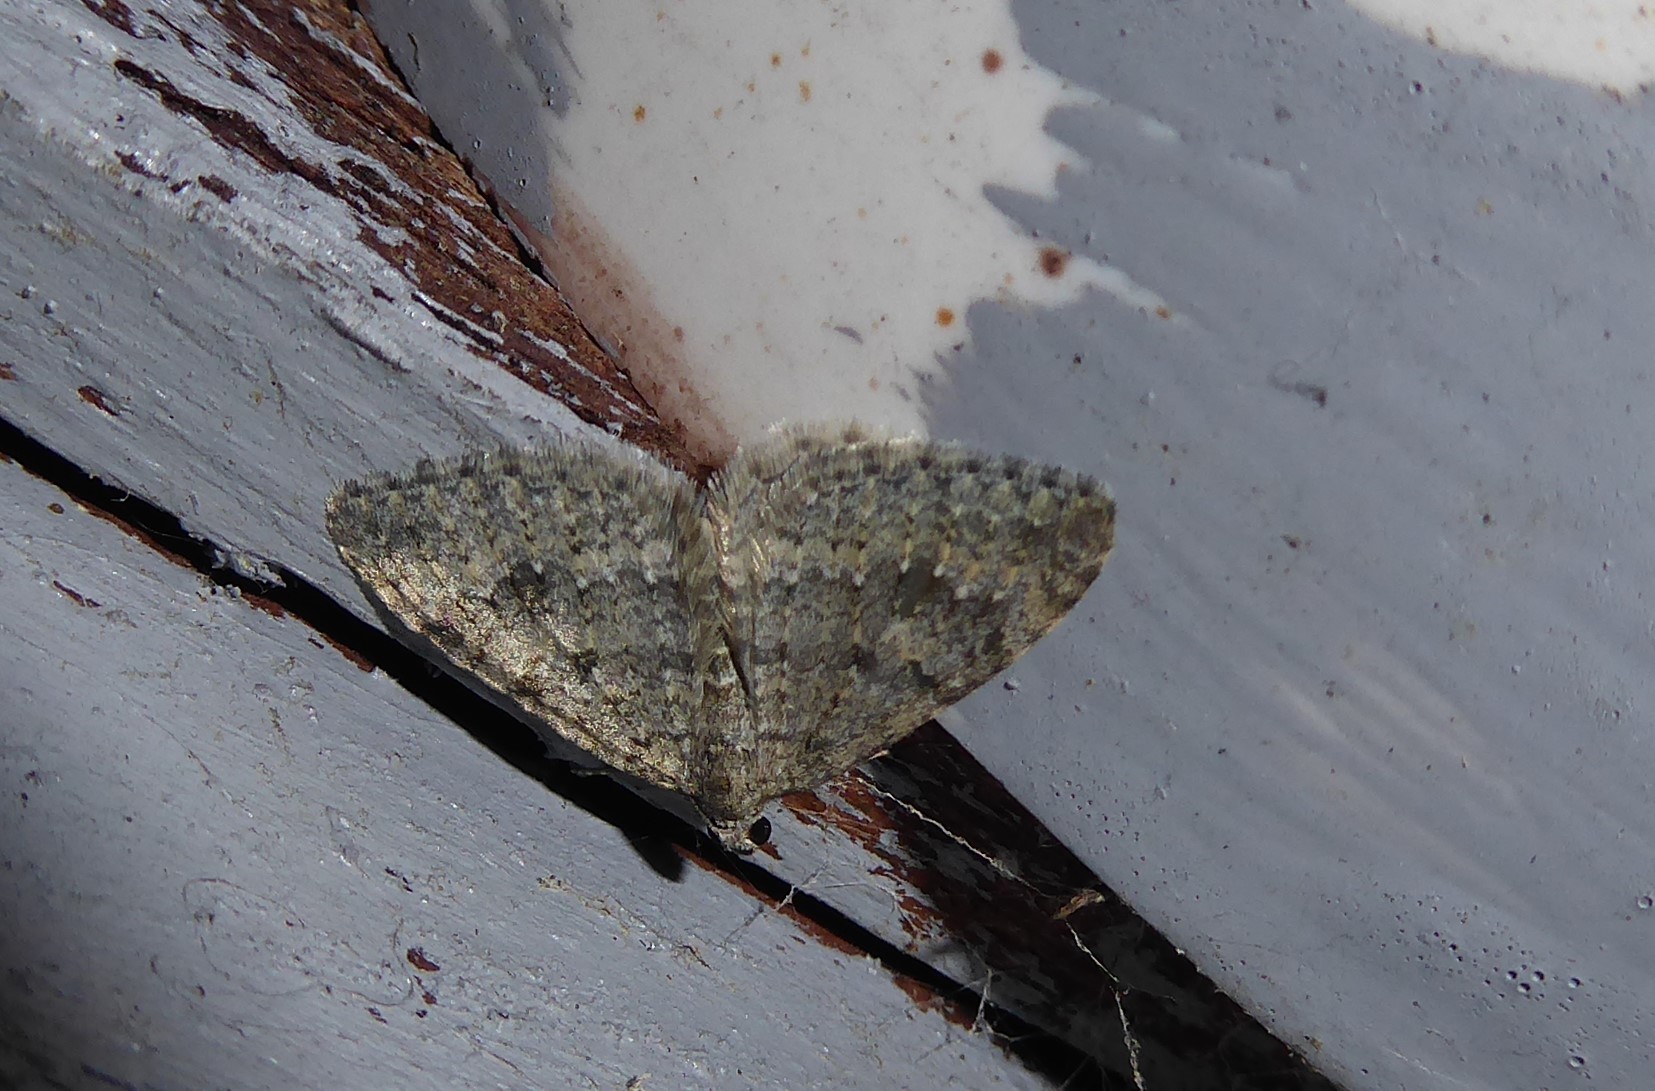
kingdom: Animalia
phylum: Arthropoda
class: Insecta
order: Lepidoptera
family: Geometridae
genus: Helastia
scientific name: Helastia corcularia
